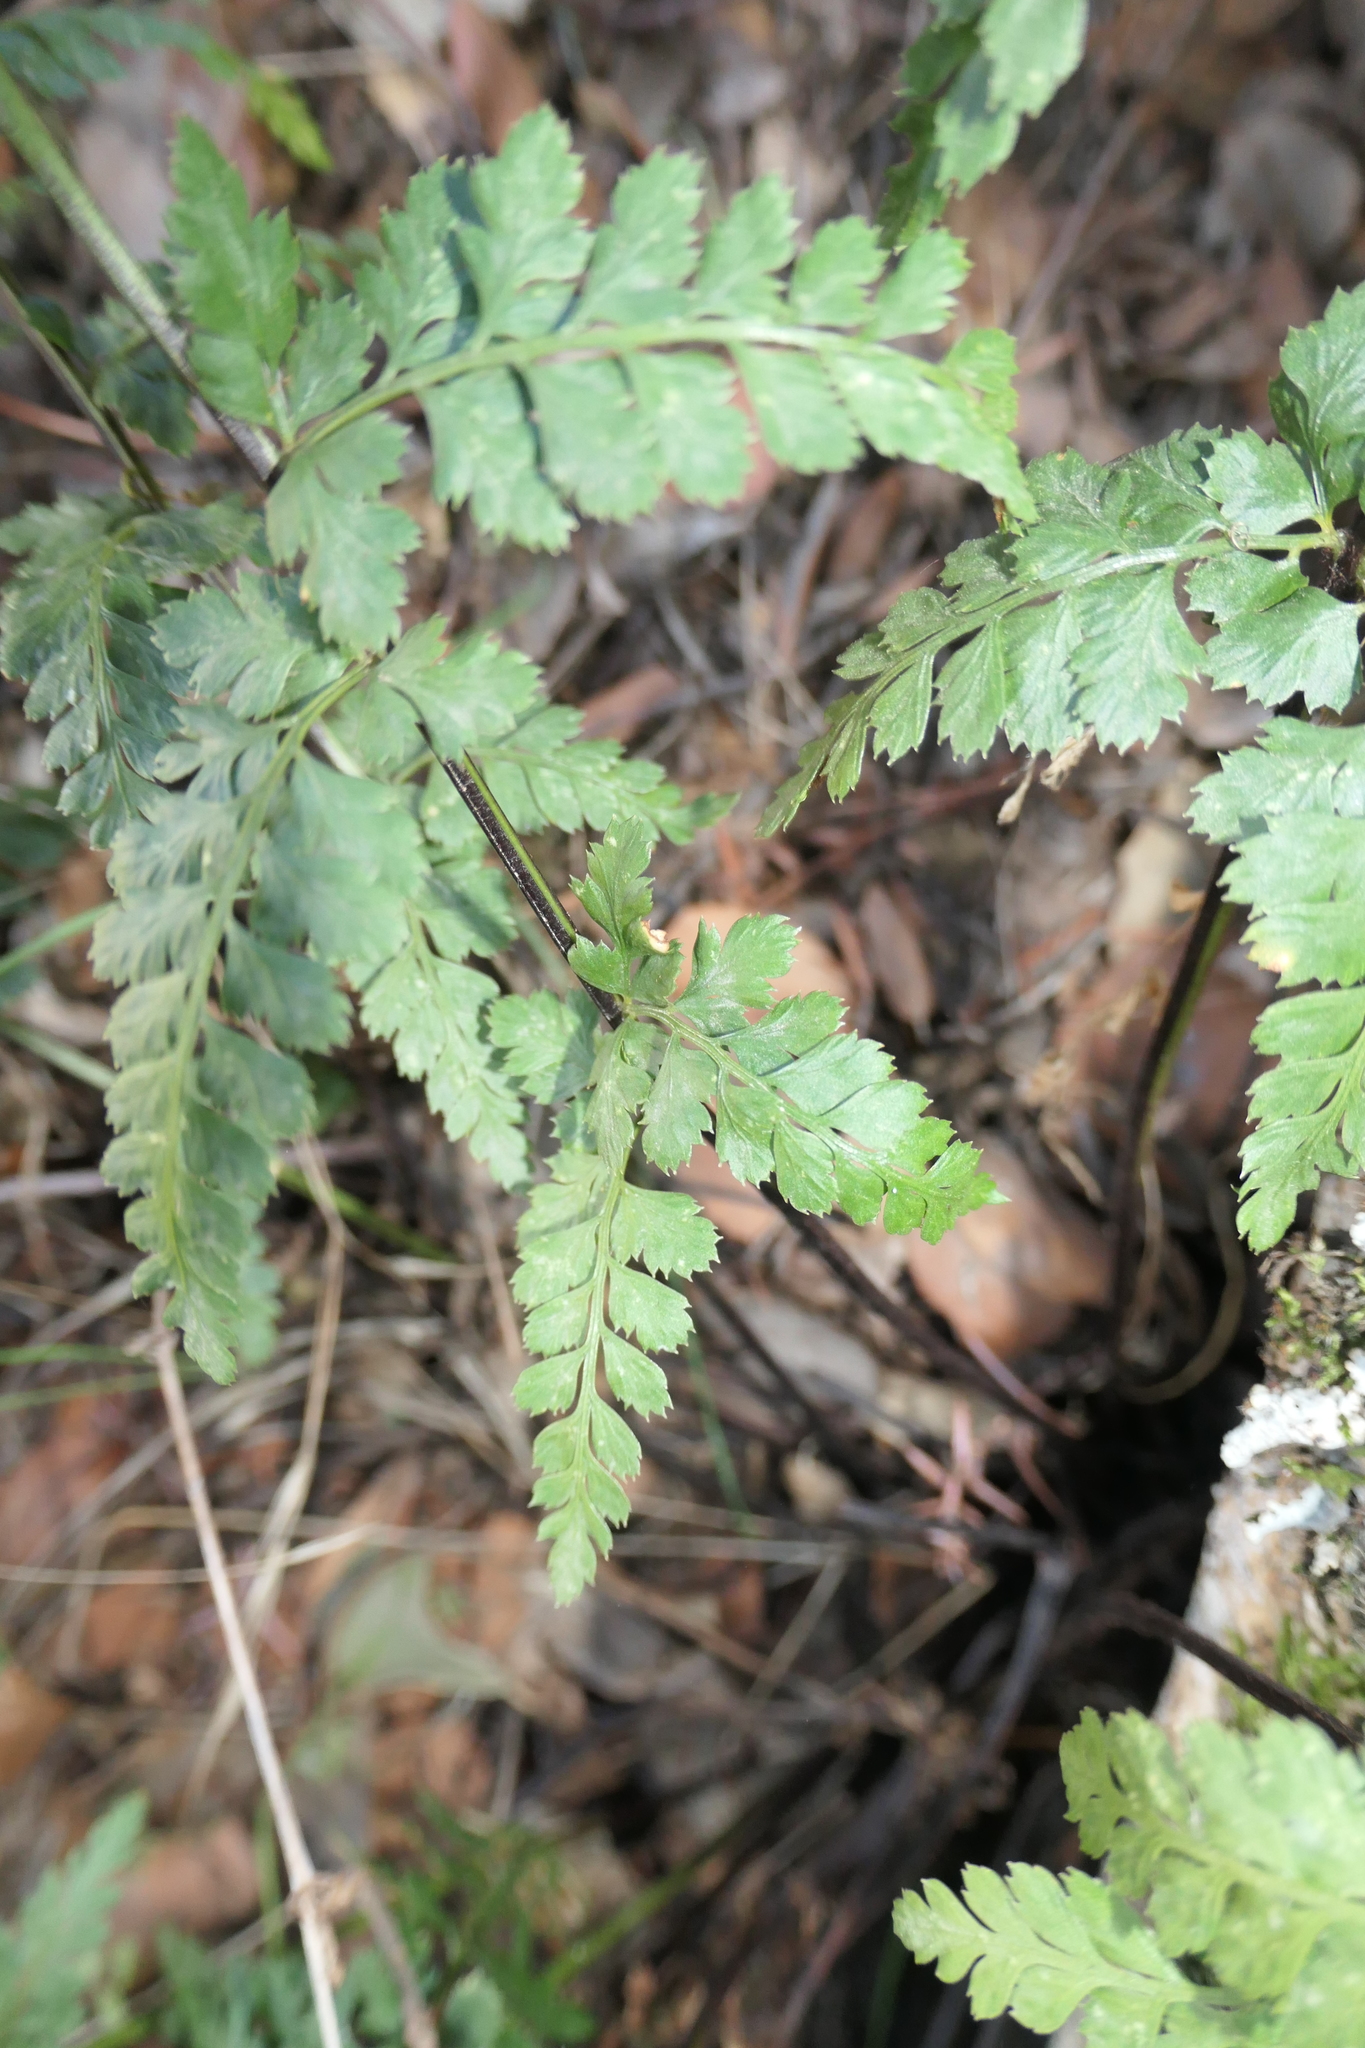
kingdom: Plantae
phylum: Tracheophyta
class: Polypodiopsida
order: Polypodiales
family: Aspleniaceae
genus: Asplenium
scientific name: Asplenium adiantum-nigrum
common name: Black spleenwort
